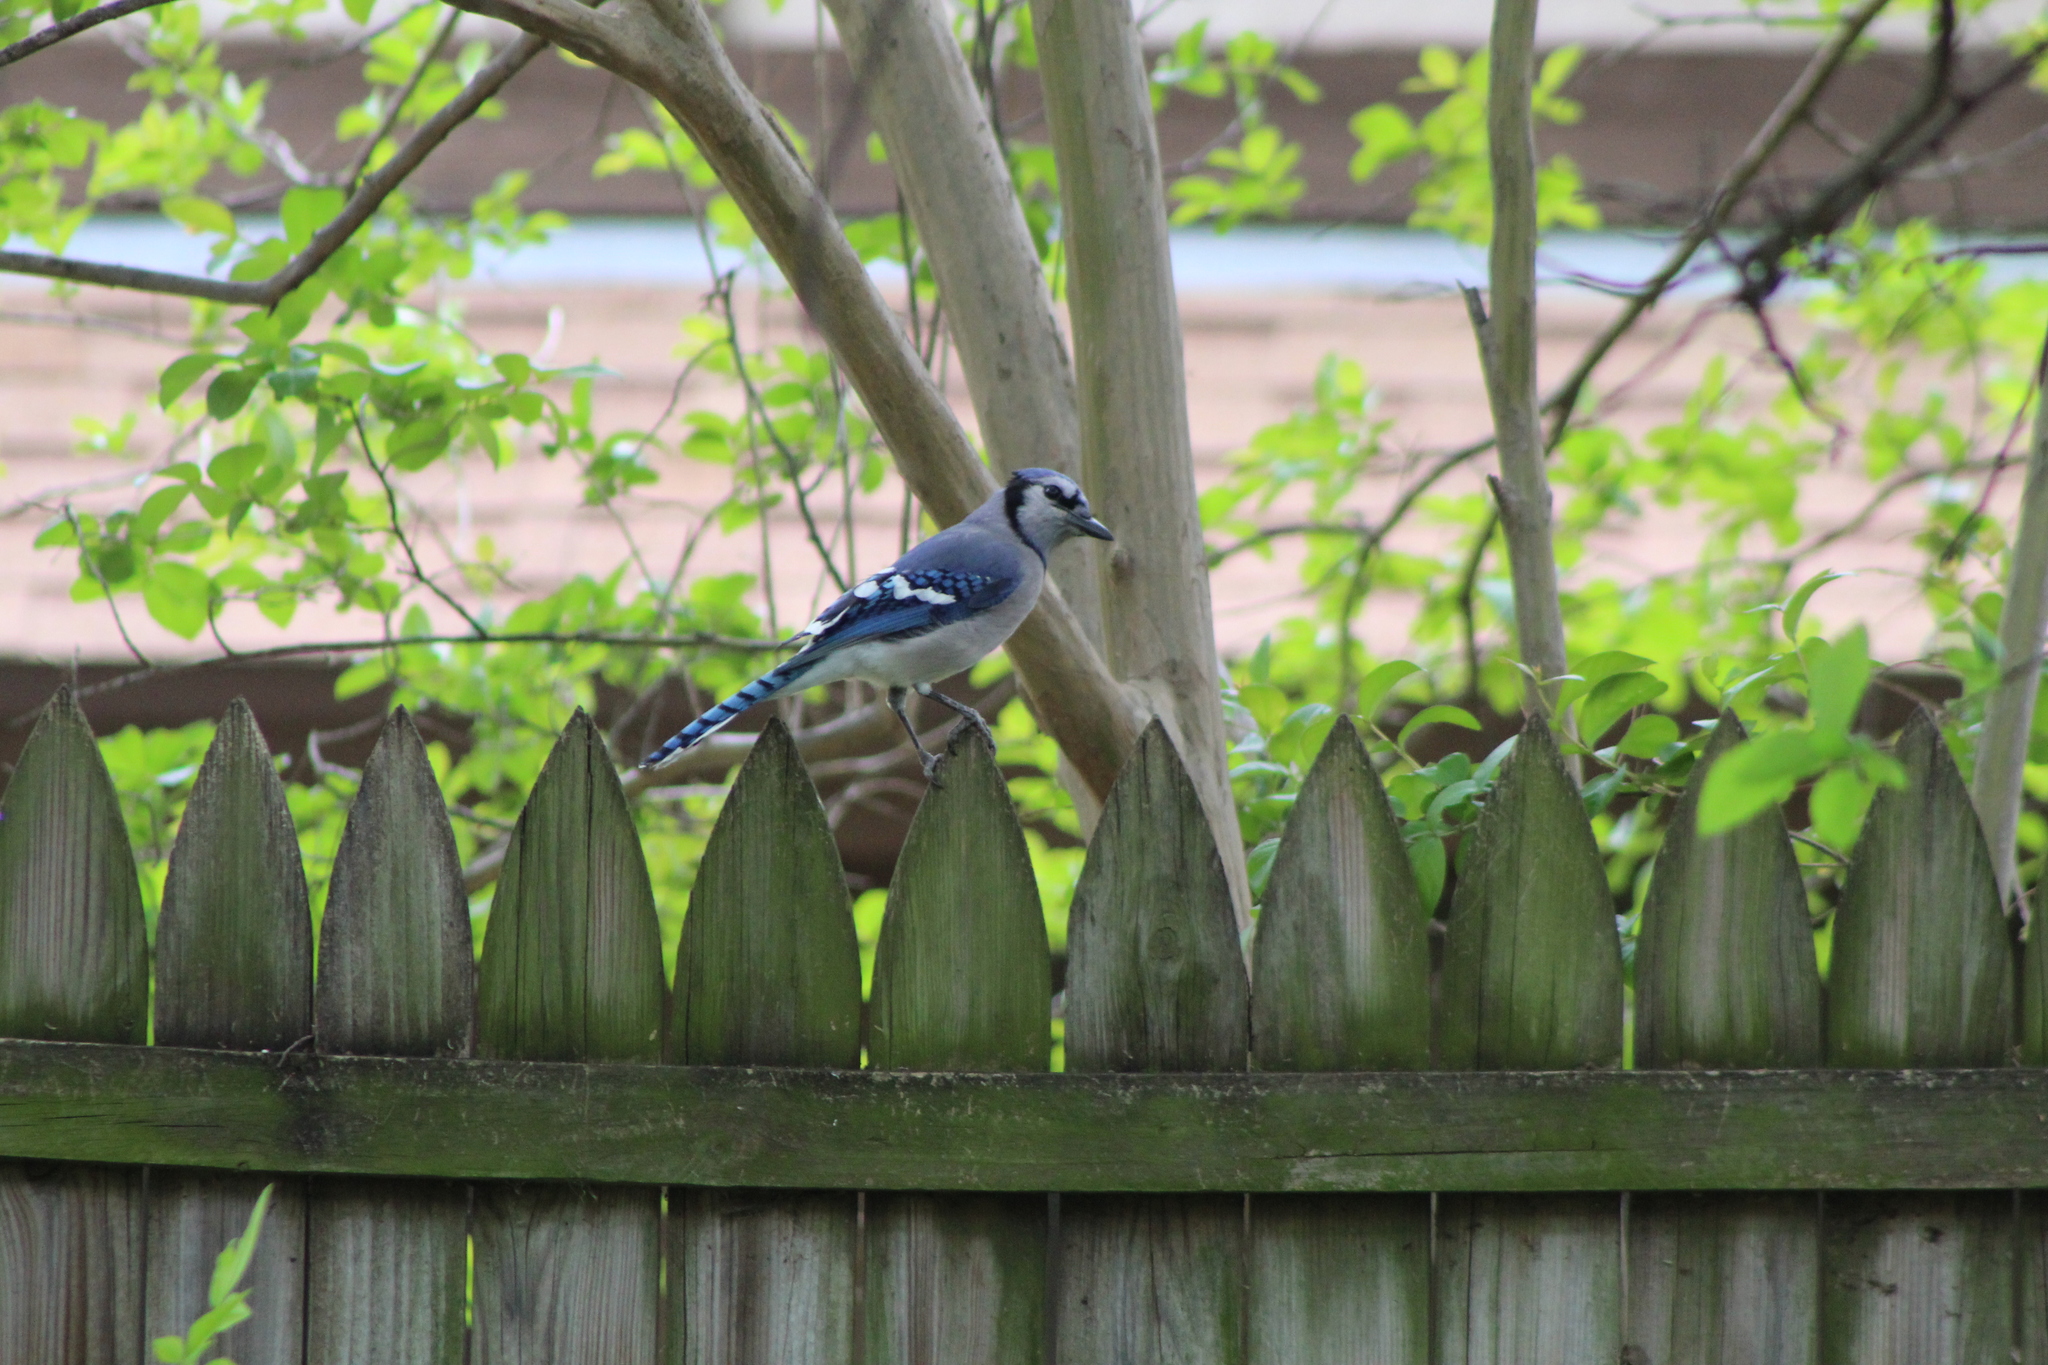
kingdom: Animalia
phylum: Chordata
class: Aves
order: Passeriformes
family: Corvidae
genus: Cyanocitta
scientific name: Cyanocitta cristata
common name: Blue jay
